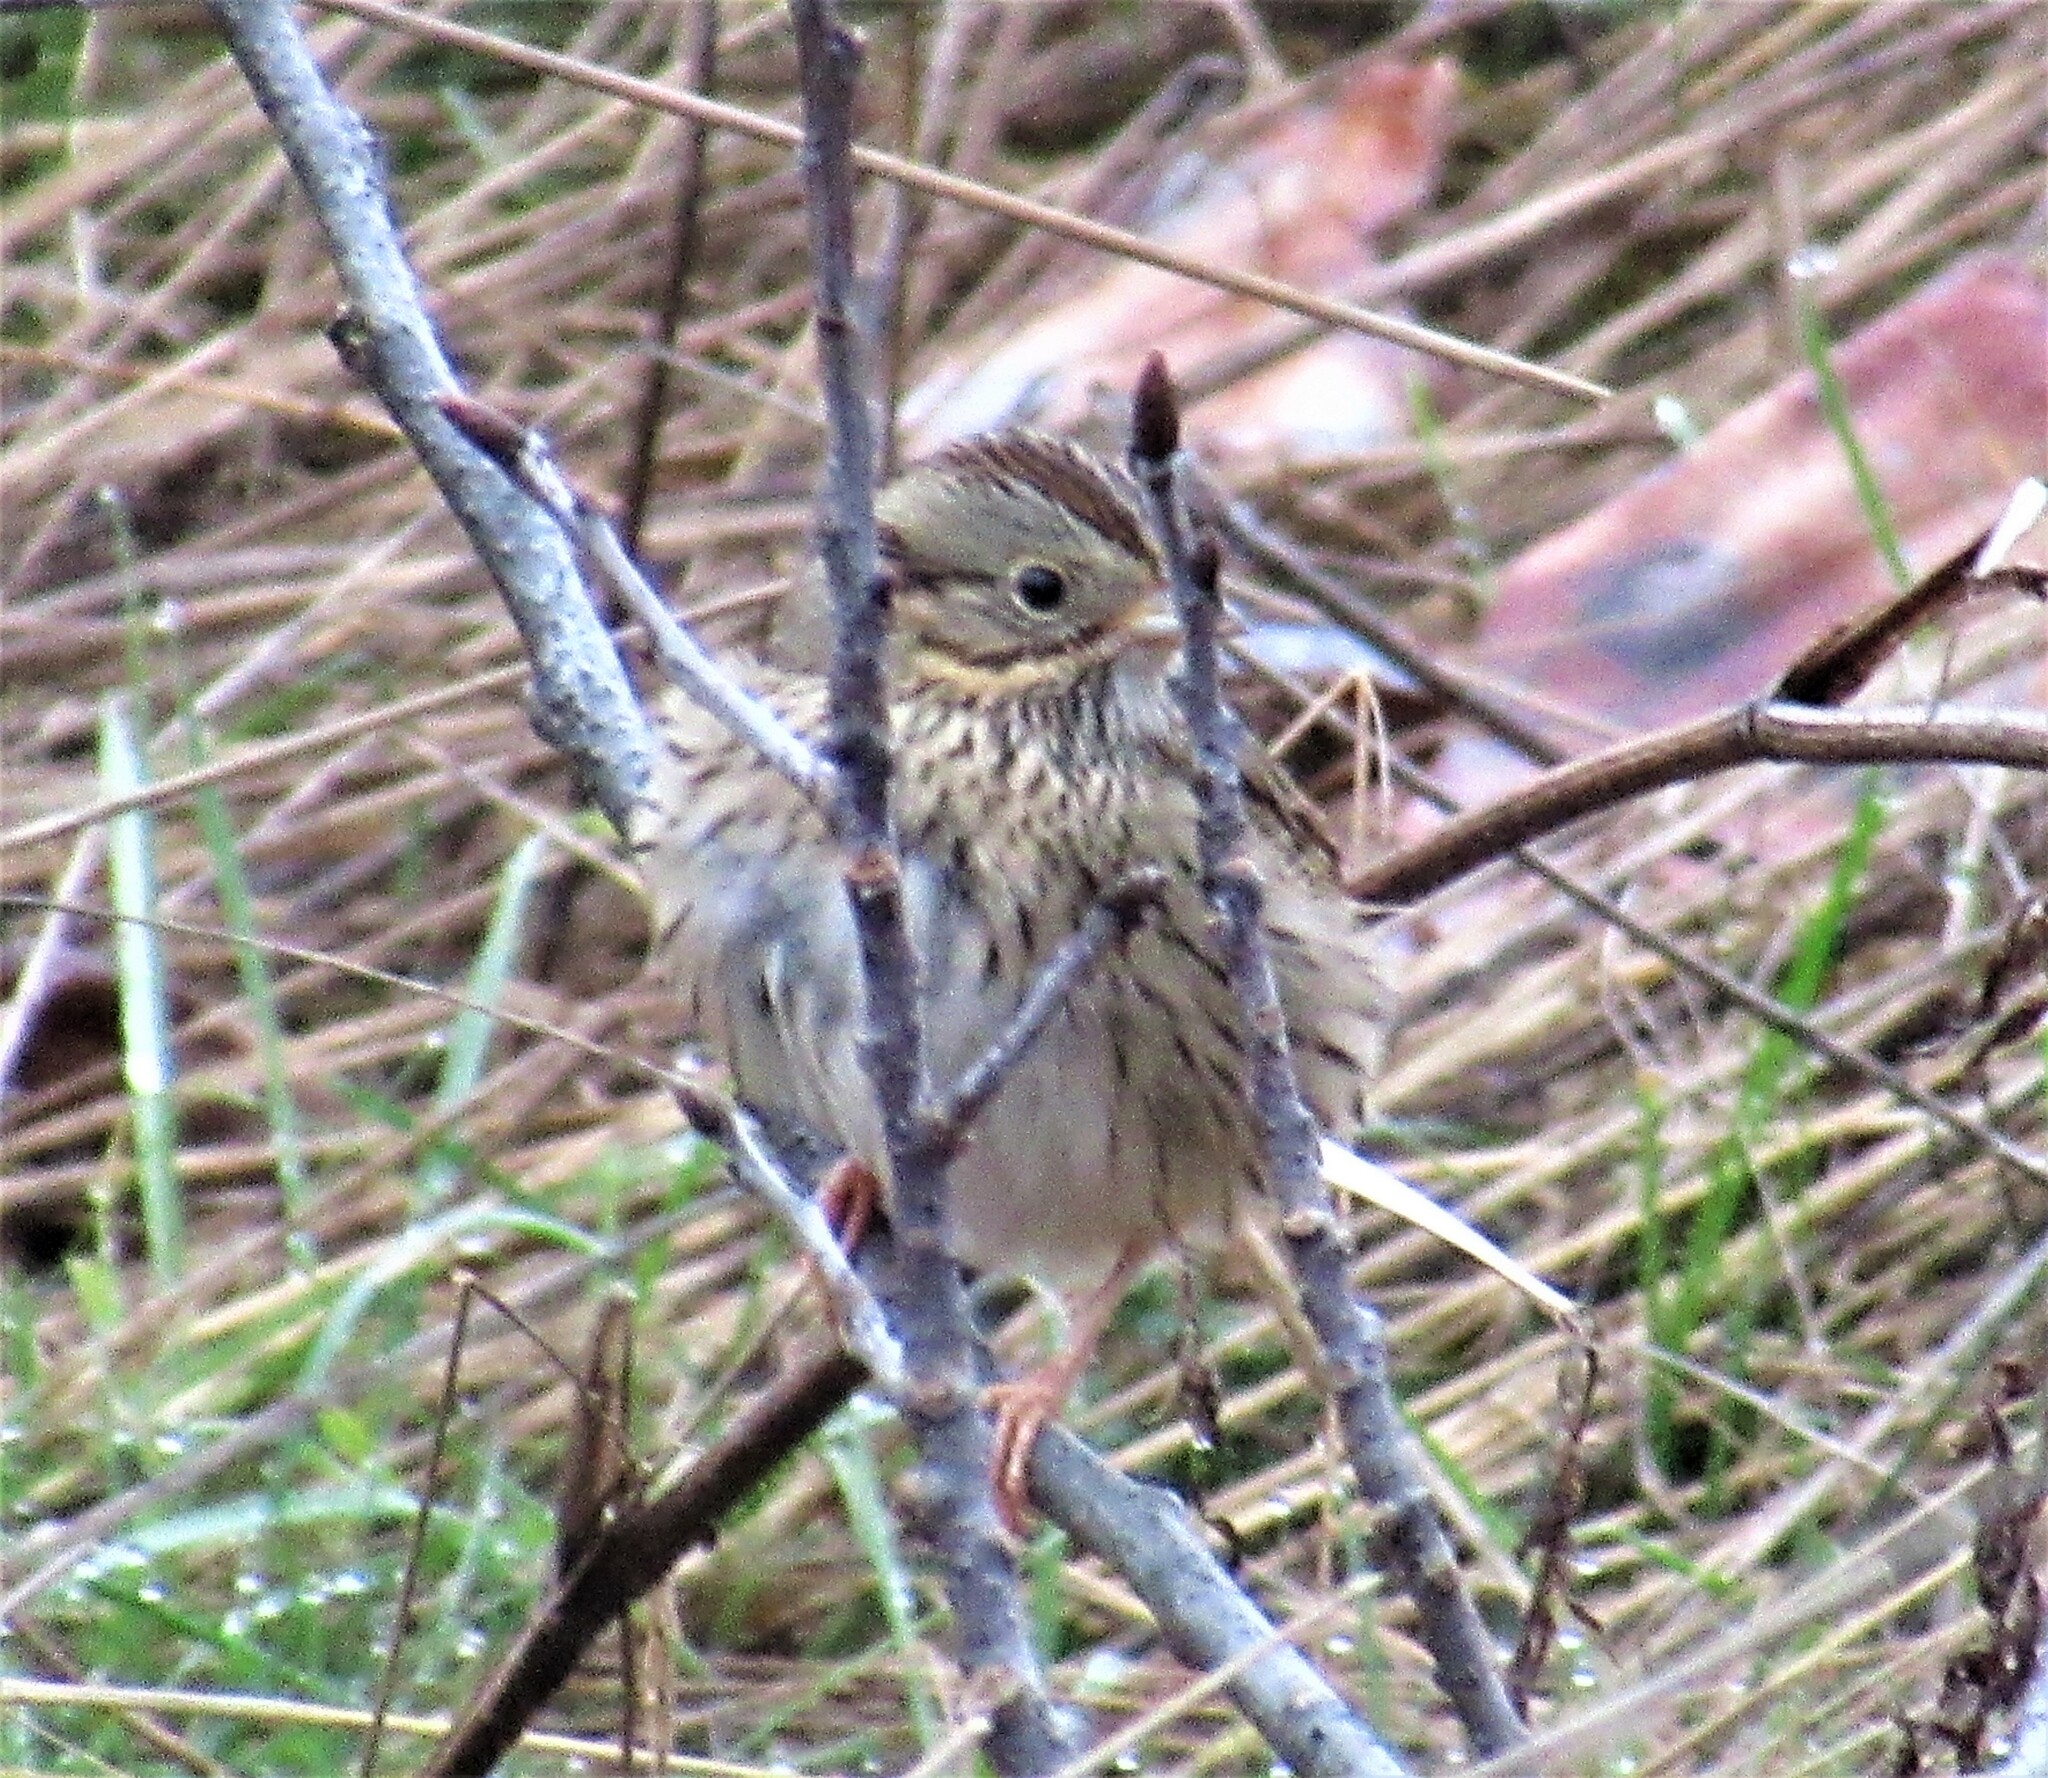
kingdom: Animalia
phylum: Chordata
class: Aves
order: Passeriformes
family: Passerellidae
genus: Melospiza
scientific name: Melospiza lincolnii
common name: Lincoln's sparrow
